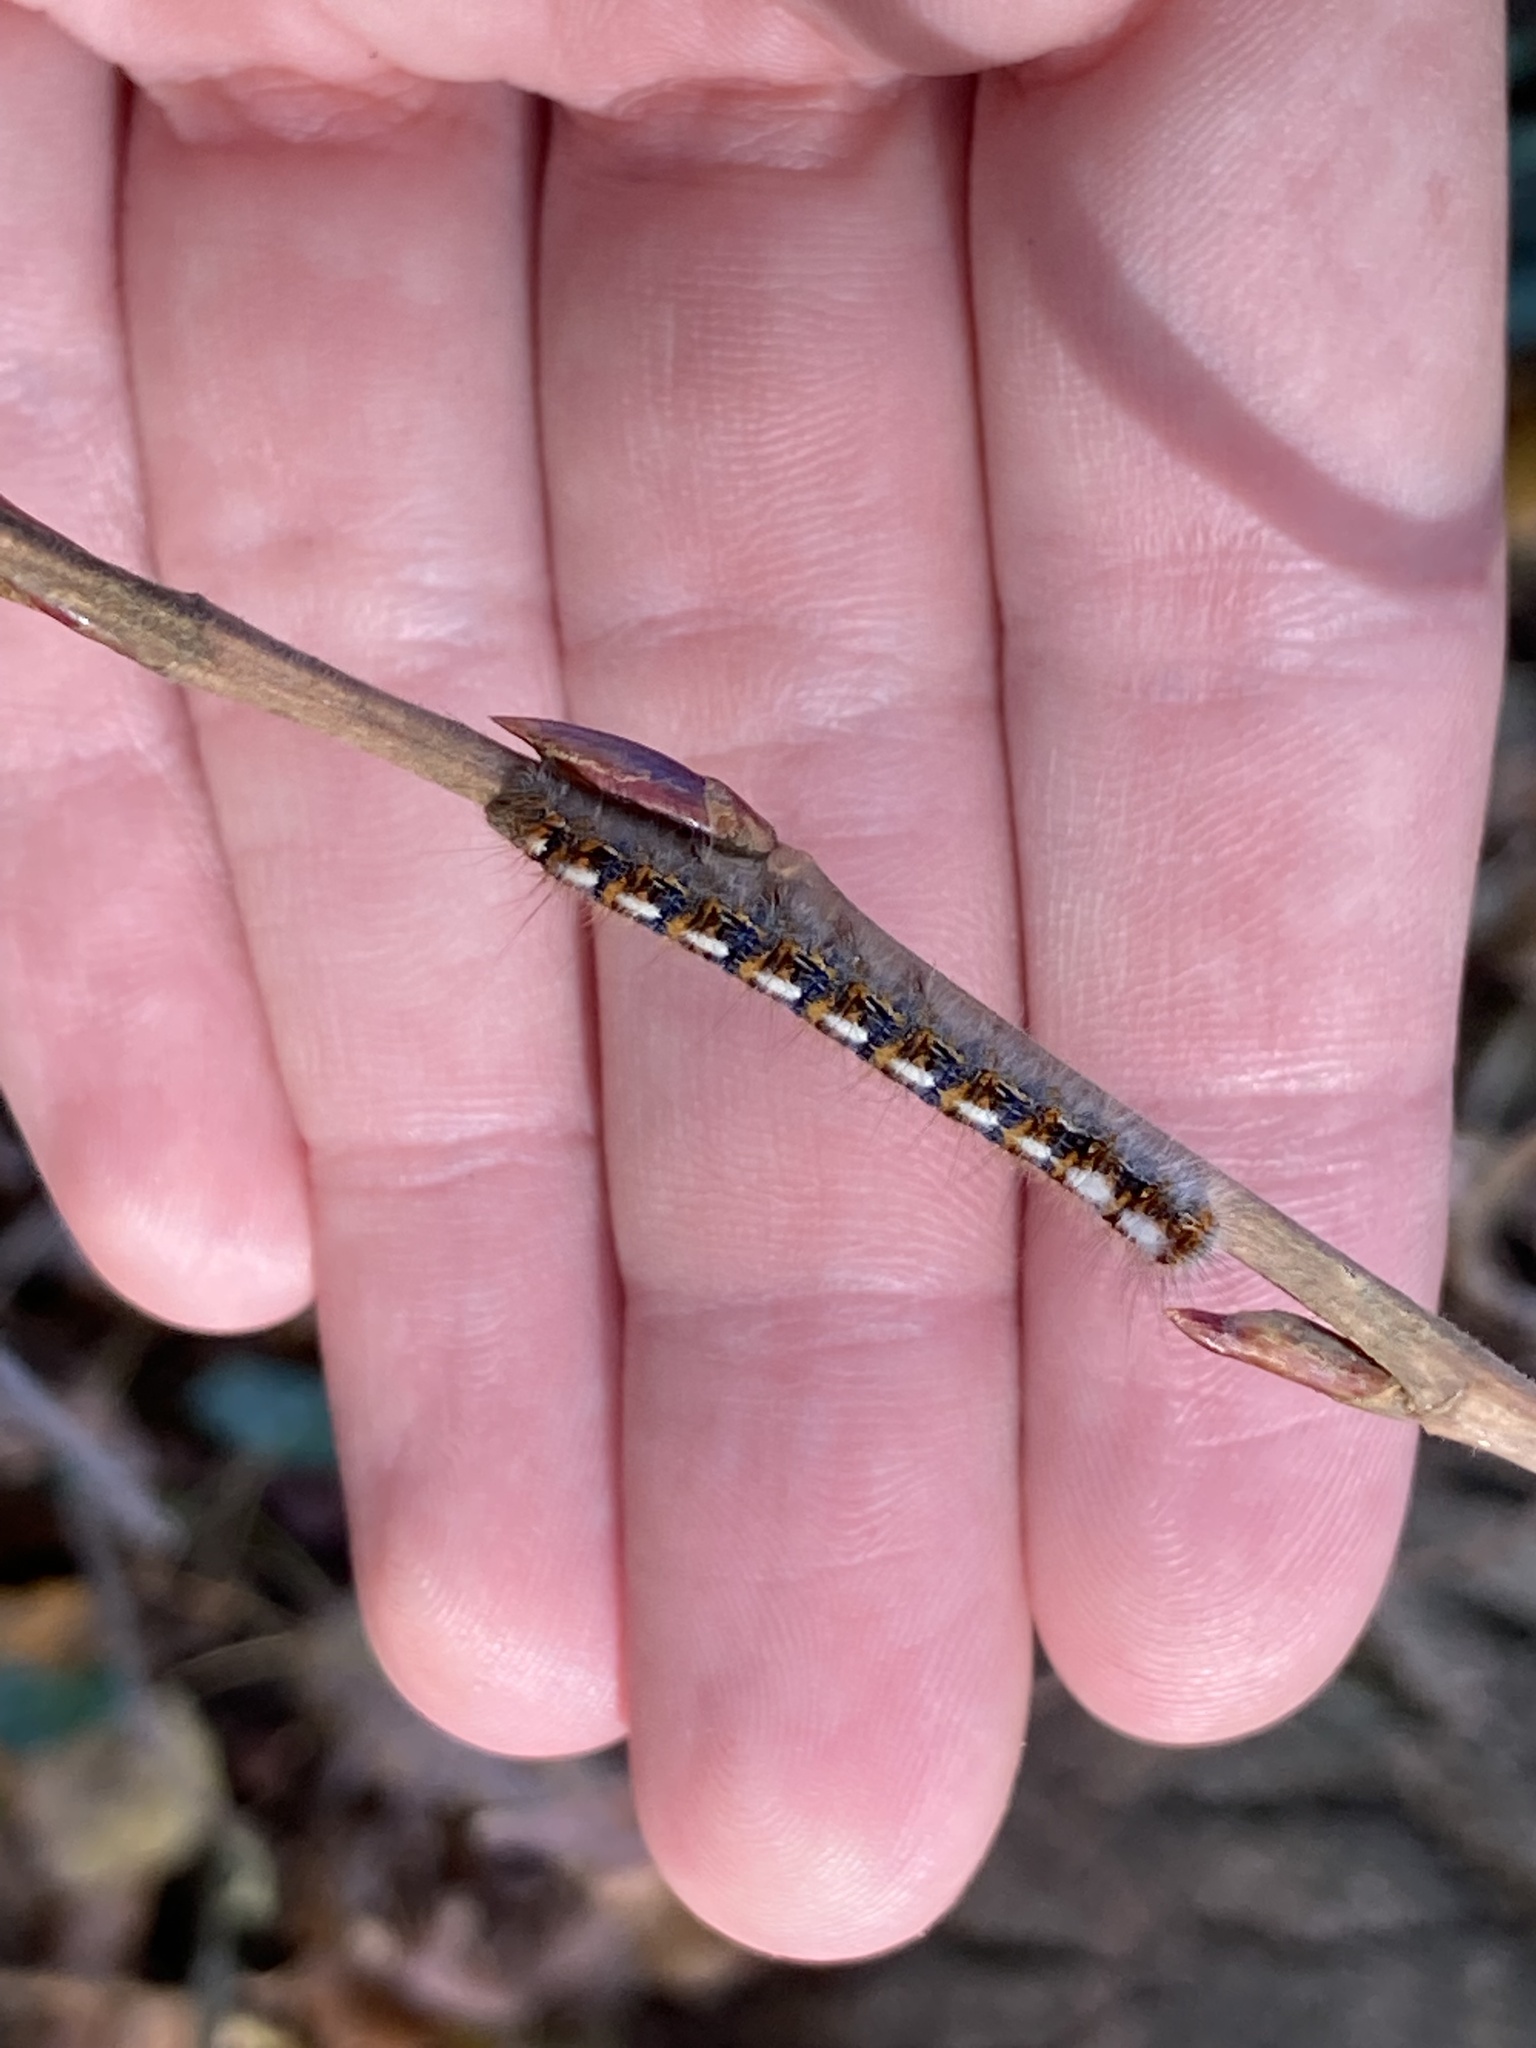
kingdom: Animalia
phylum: Arthropoda
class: Insecta
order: Lepidoptera
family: Lasiocampidae
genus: Lasiocampa
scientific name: Lasiocampa quercus
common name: Oak eggar
